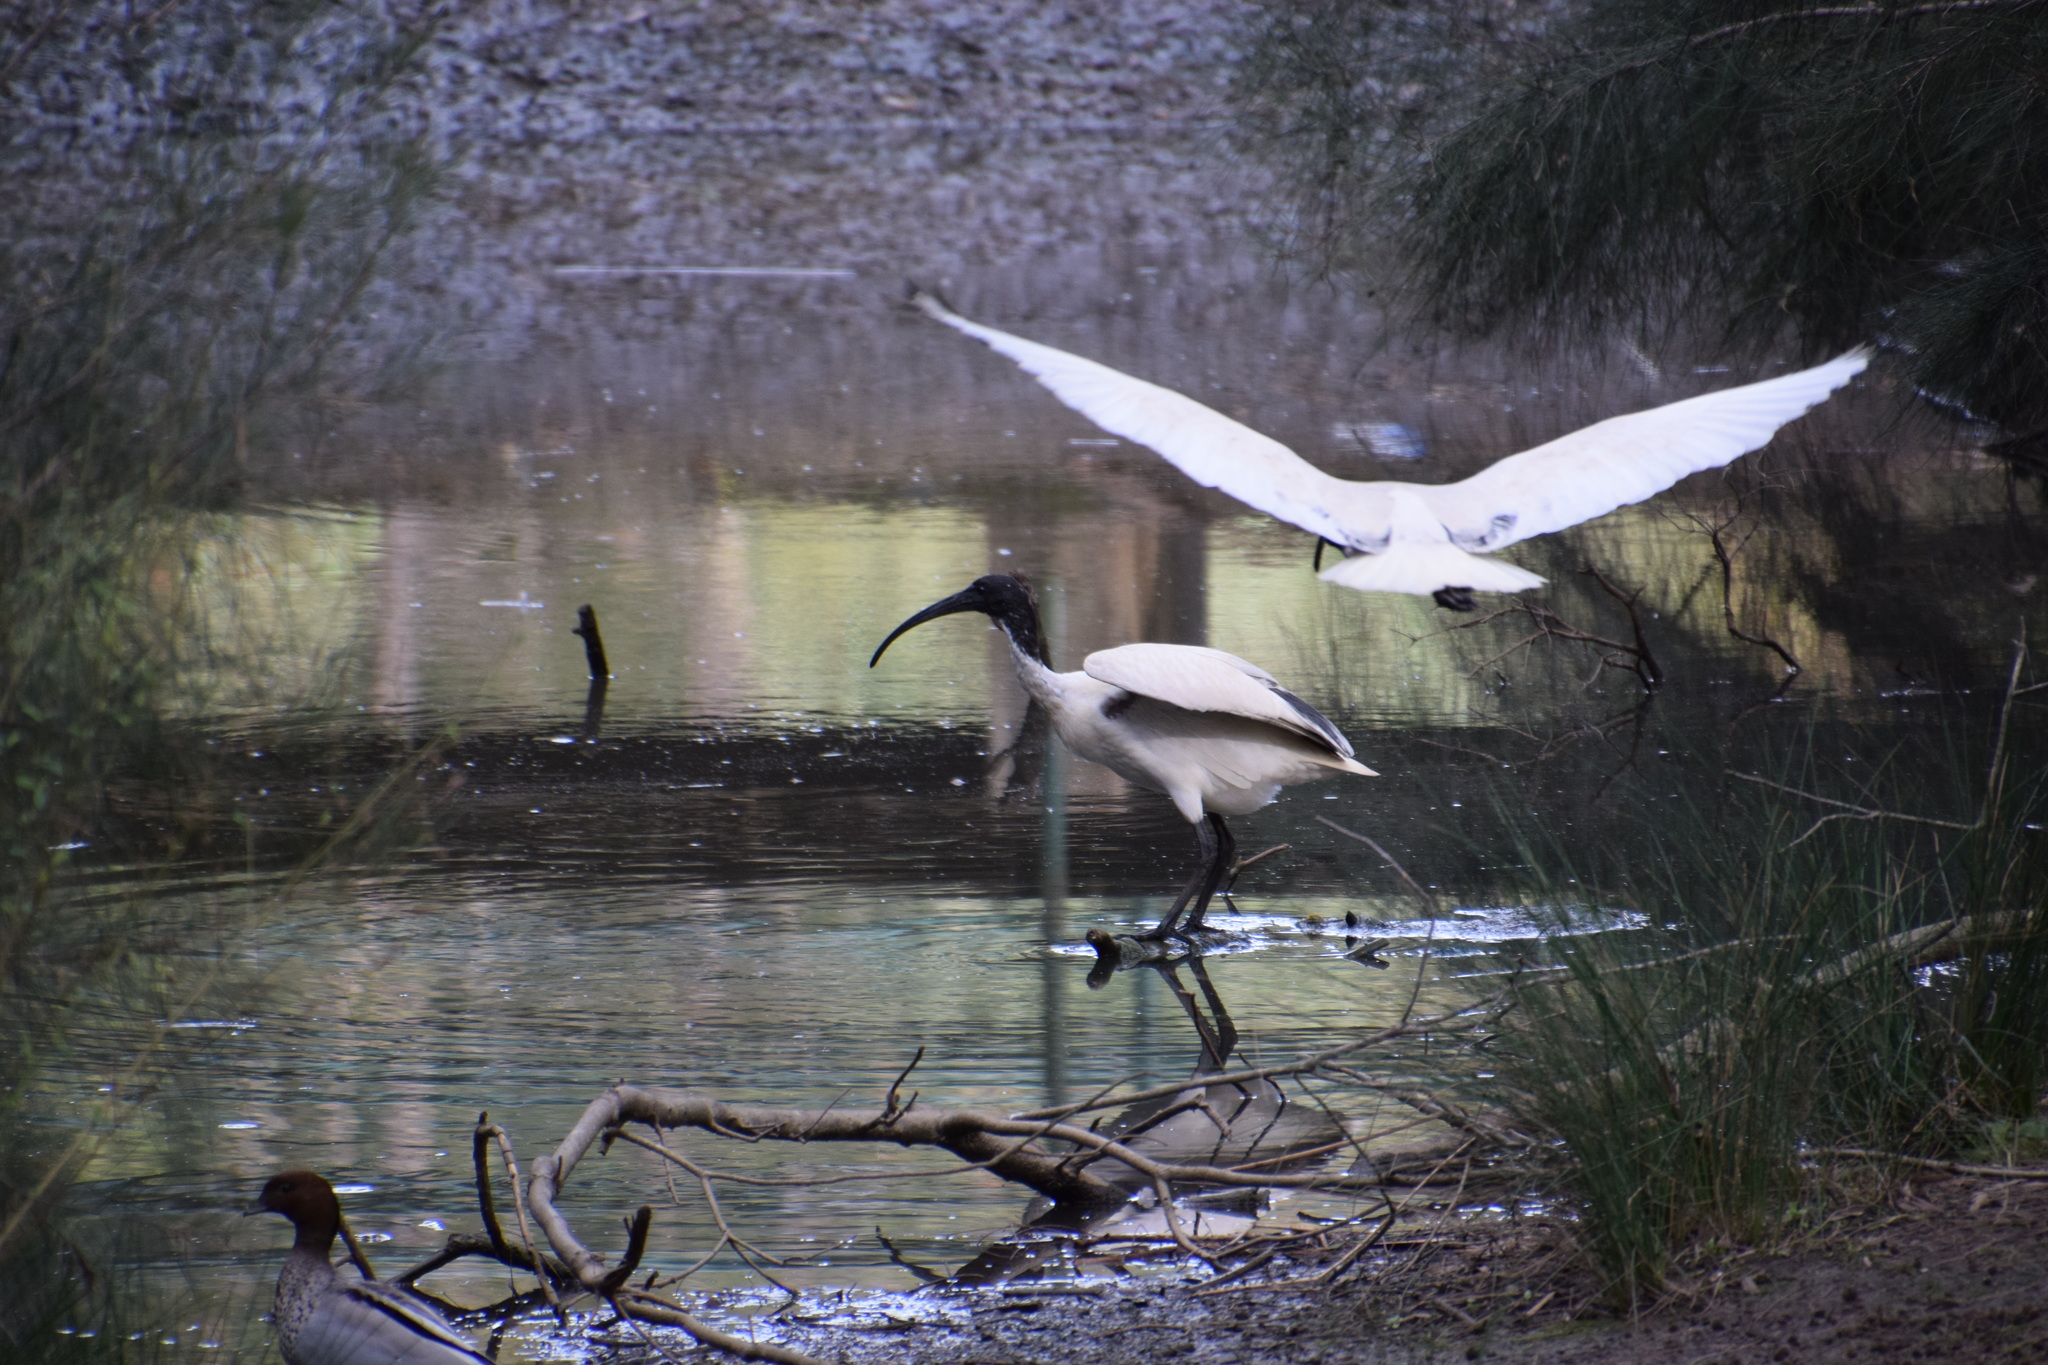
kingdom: Animalia
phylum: Chordata
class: Aves
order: Pelecaniformes
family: Threskiornithidae
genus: Threskiornis
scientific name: Threskiornis molucca
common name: Australian white ibis
